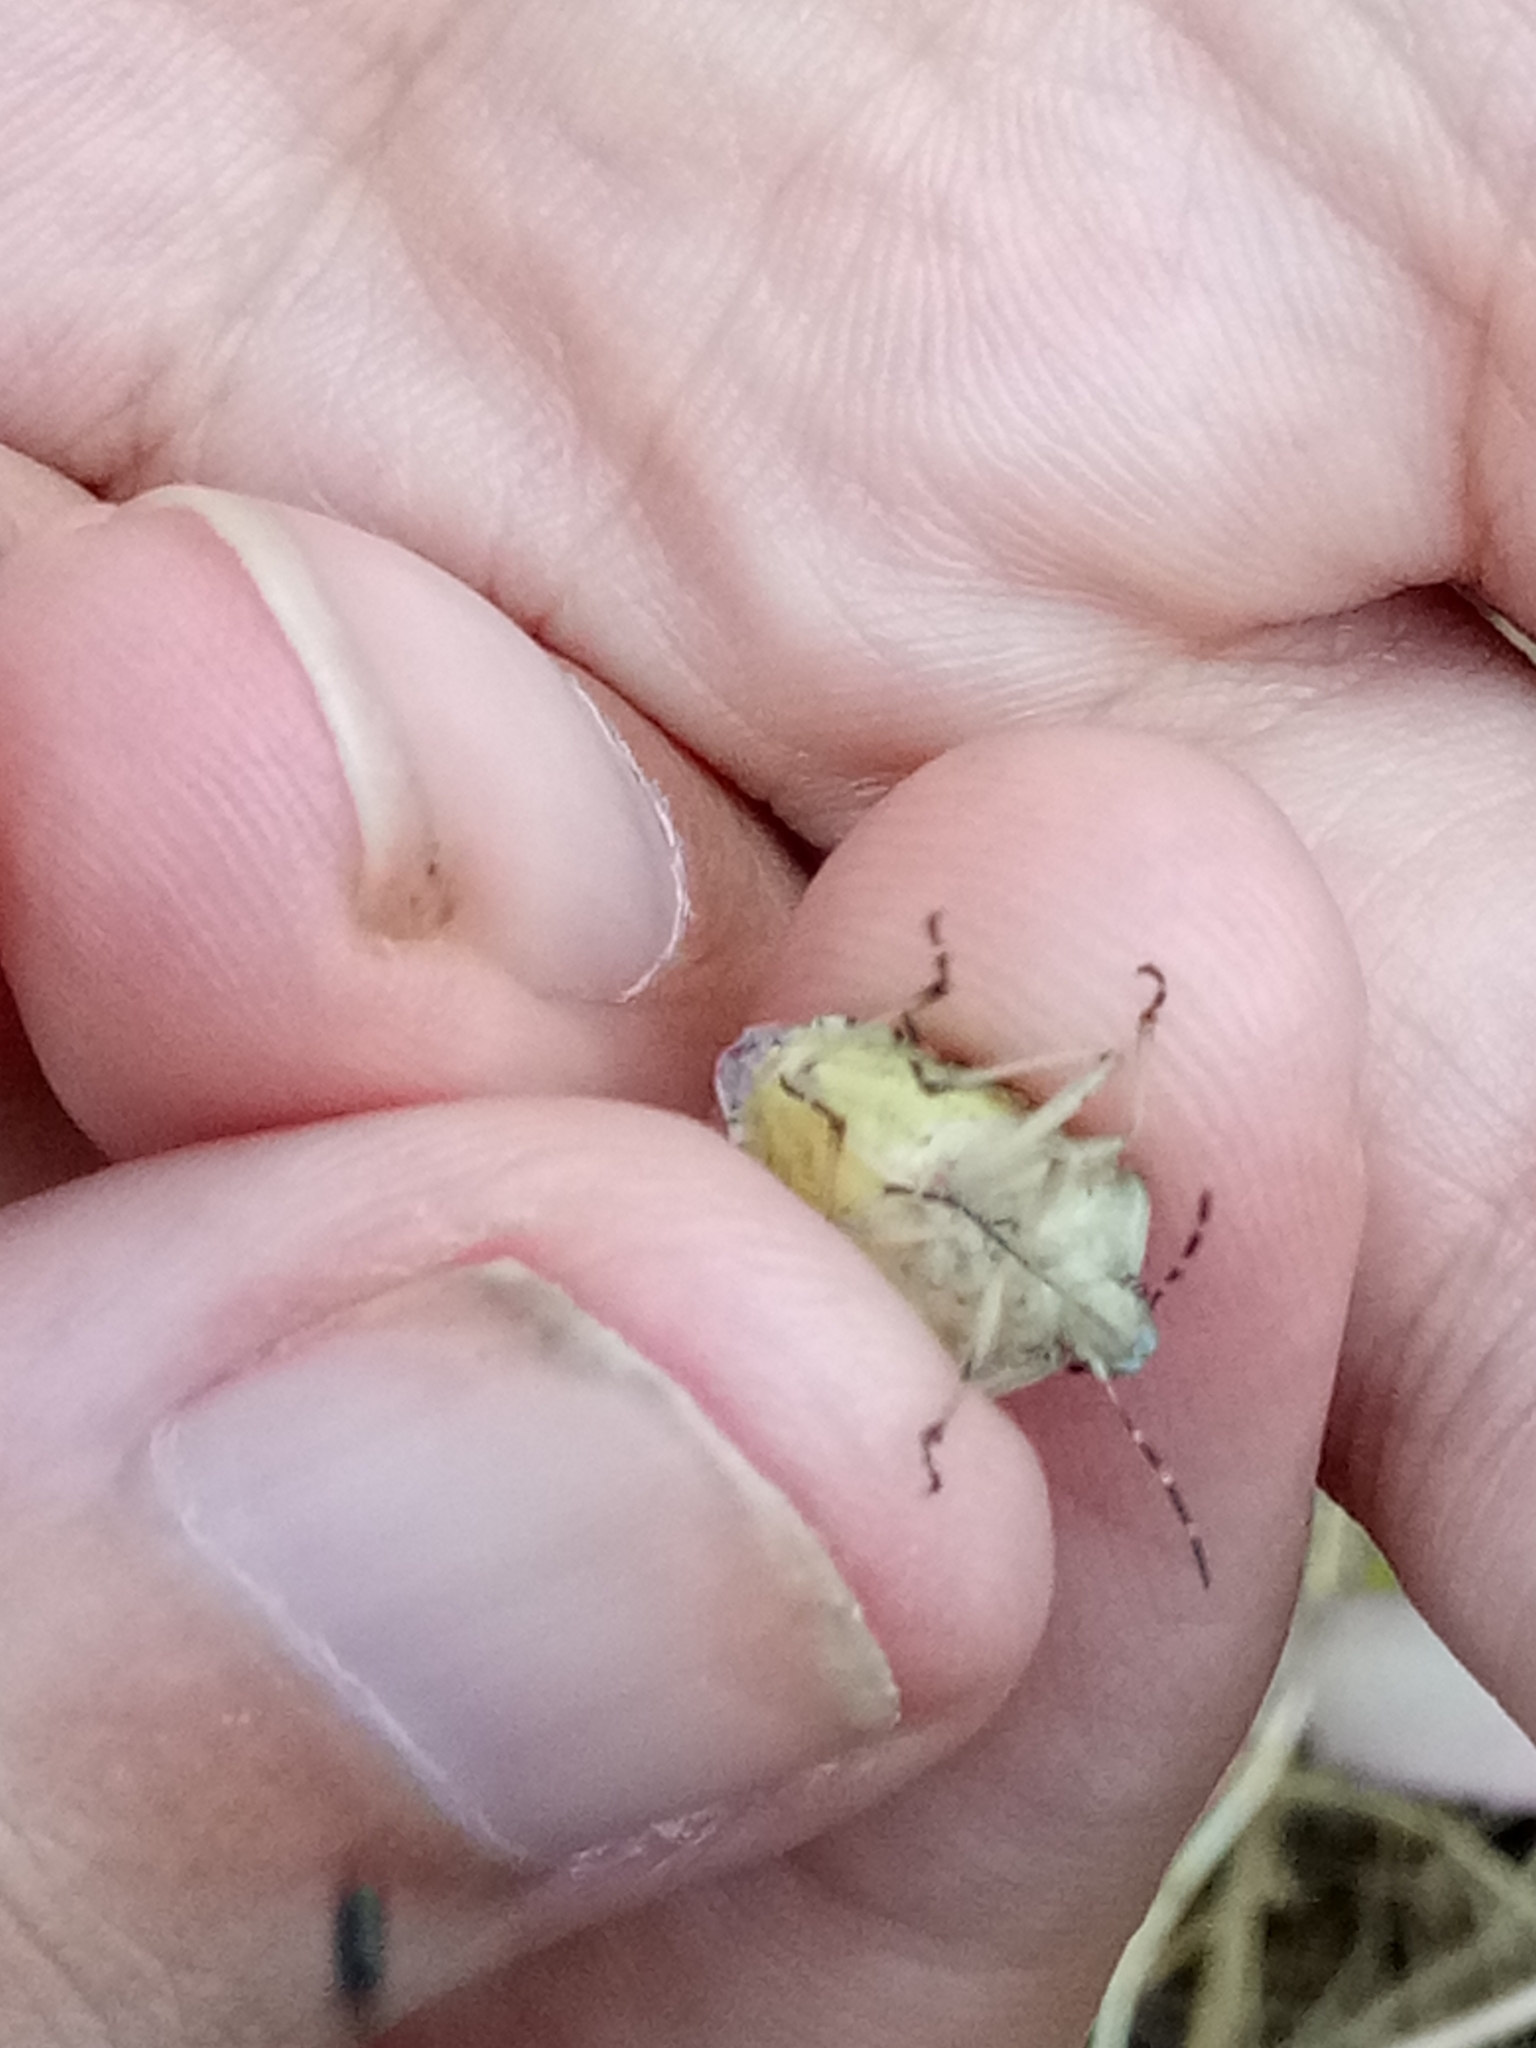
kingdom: Animalia
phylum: Arthropoda
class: Insecta
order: Hemiptera
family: Pentatomidae
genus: Dolycoris
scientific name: Dolycoris numidicus
